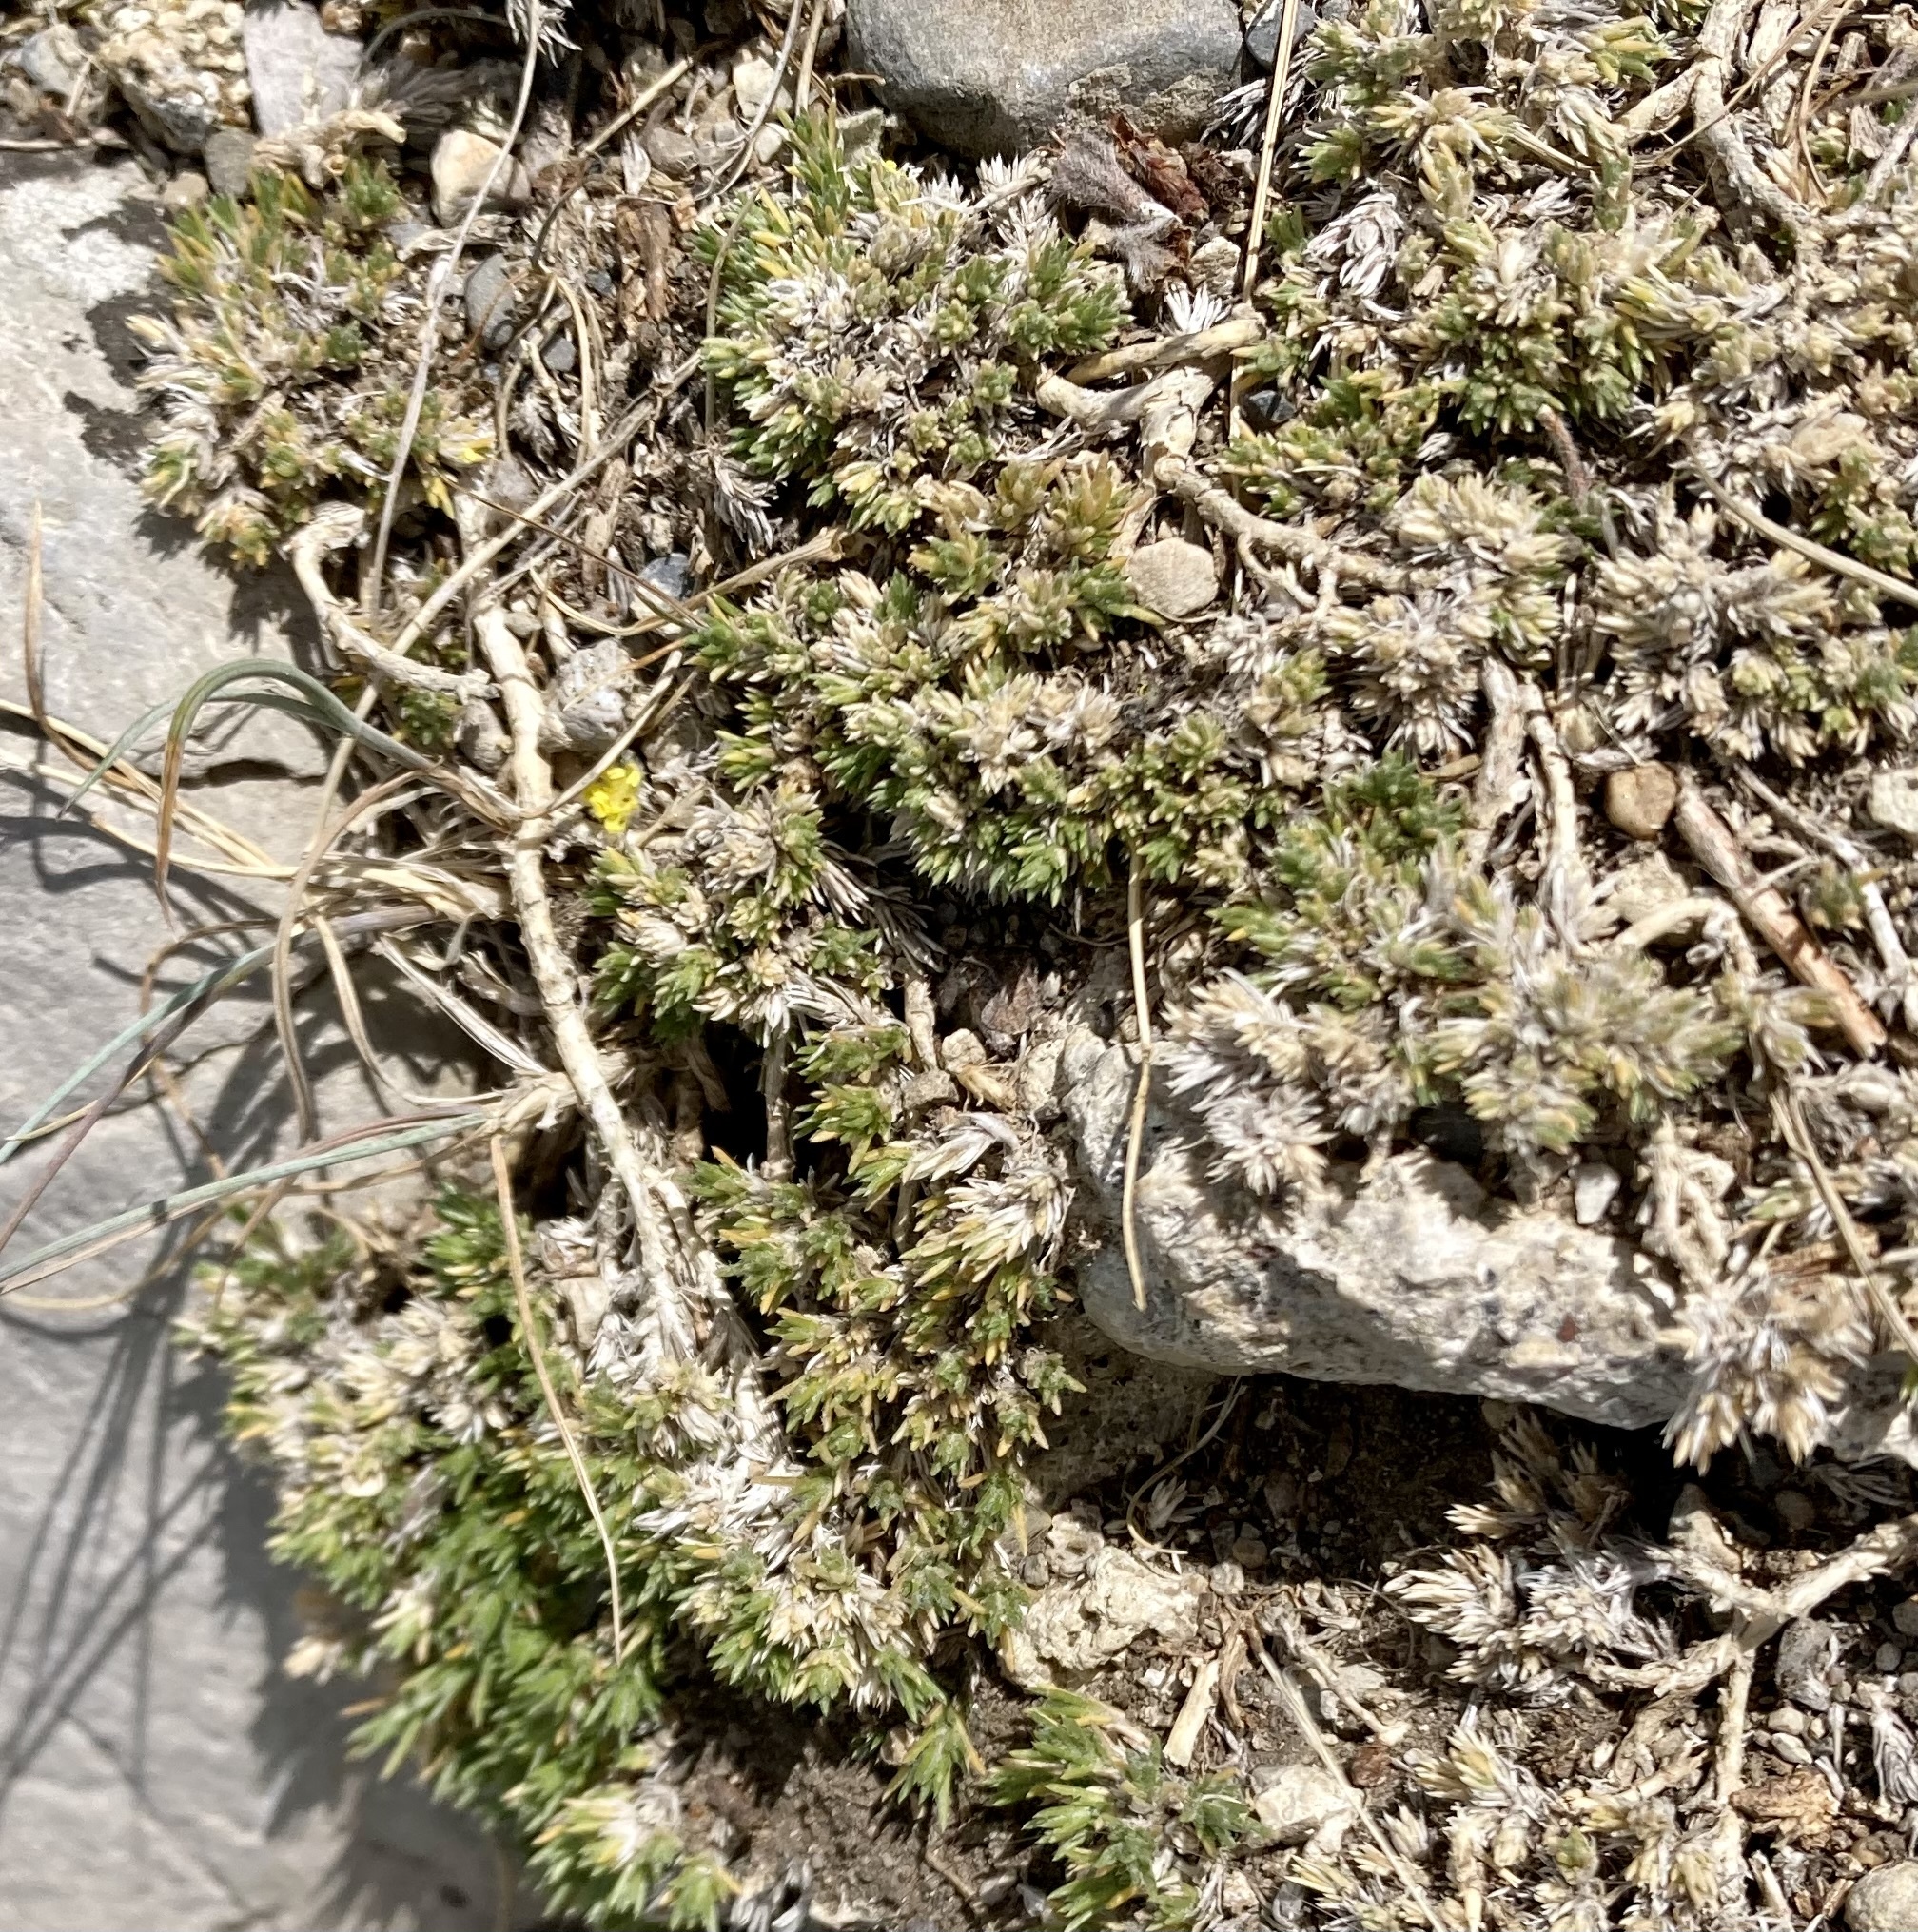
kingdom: Plantae
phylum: Tracheophyta
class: Magnoliopsida
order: Ericales
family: Polemoniaceae
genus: Phlox
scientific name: Phlox hoodii
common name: Moss phlox
